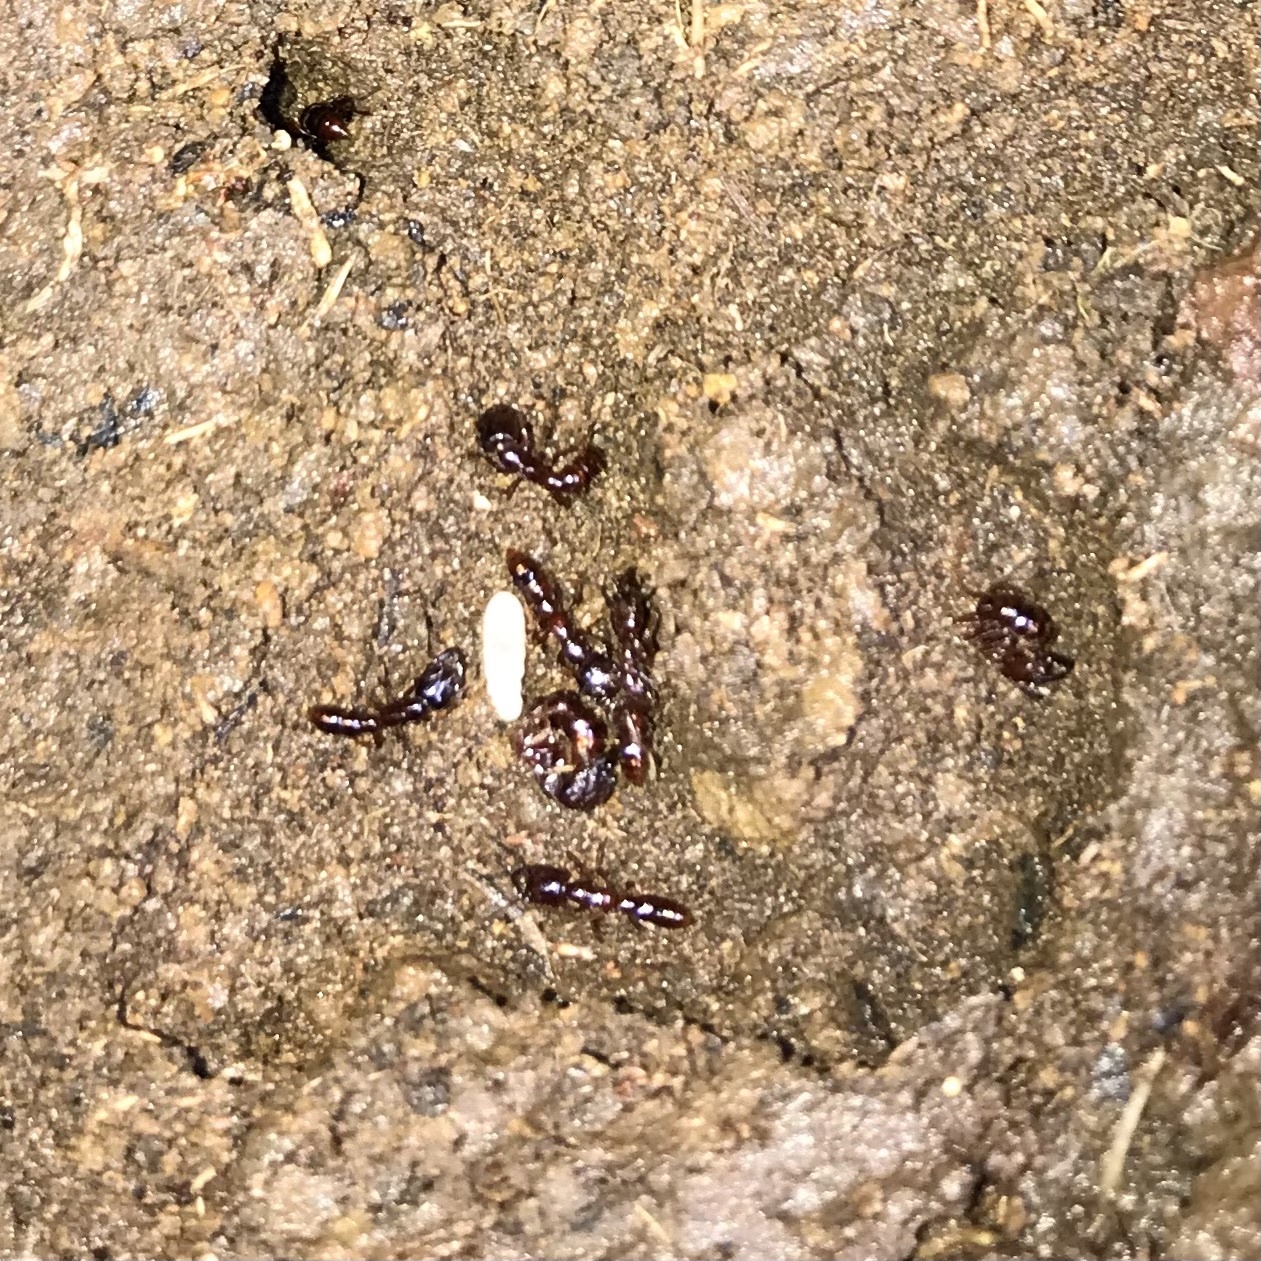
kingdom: Animalia
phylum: Arthropoda
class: Insecta
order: Hymenoptera
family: Formicidae
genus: Amblyopone
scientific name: Amblyopone australis
